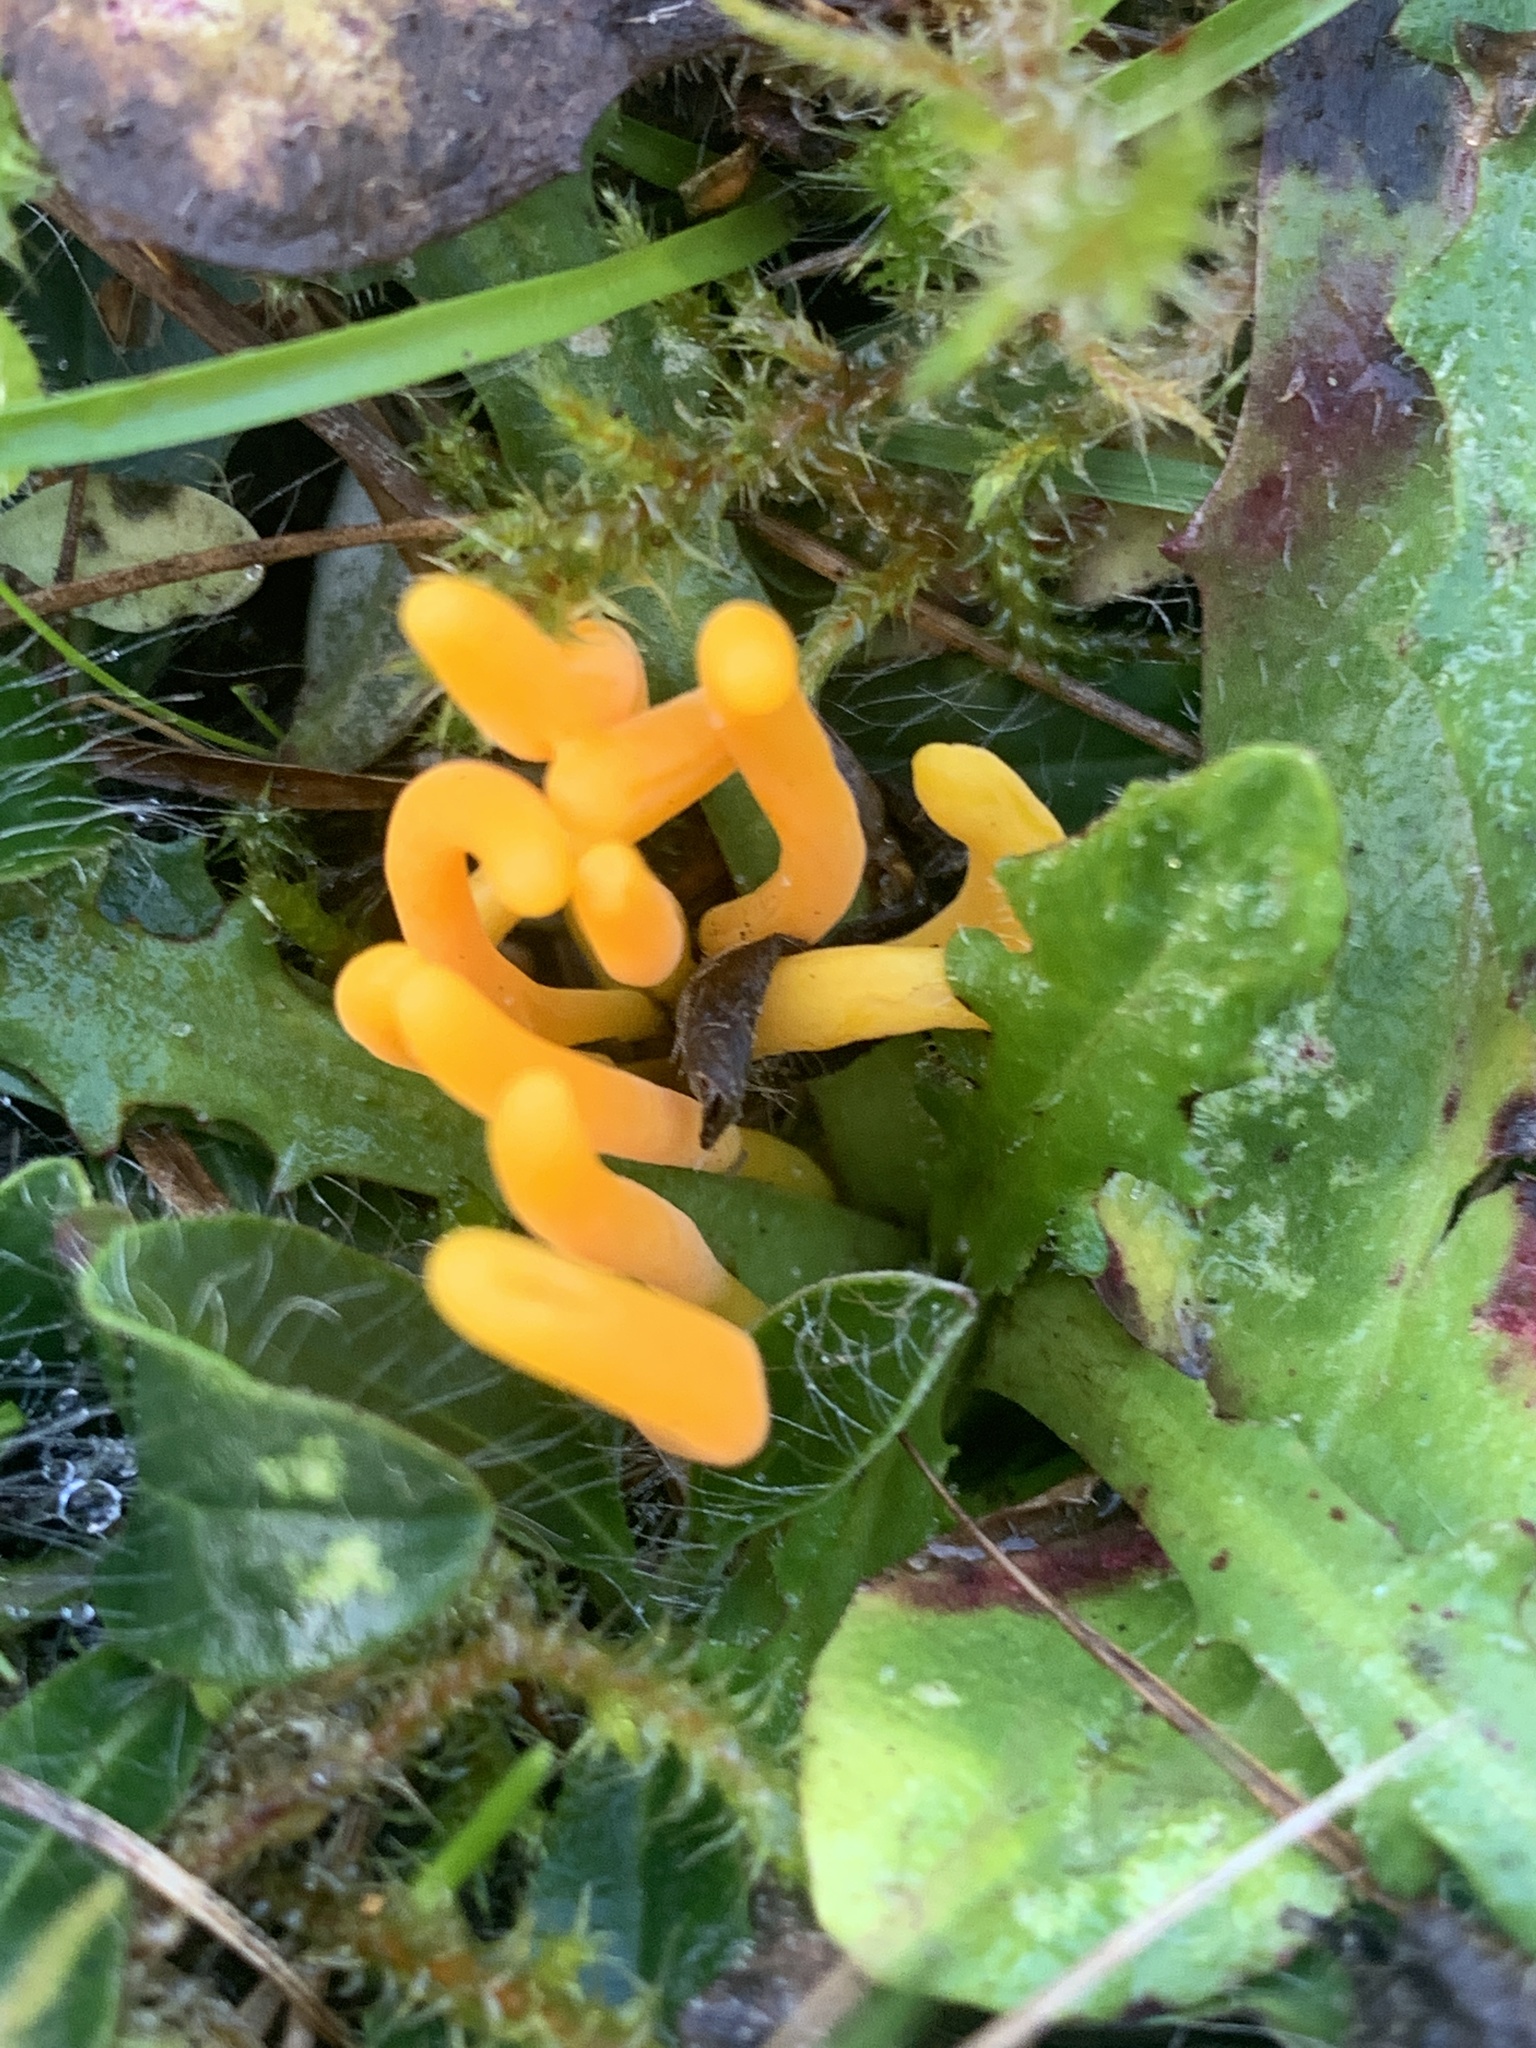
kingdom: Fungi
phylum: Basidiomycota
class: Agaricomycetes
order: Agaricales
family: Clavariaceae
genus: Clavulinopsis
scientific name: Clavulinopsis corniculata
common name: Meadow coral
